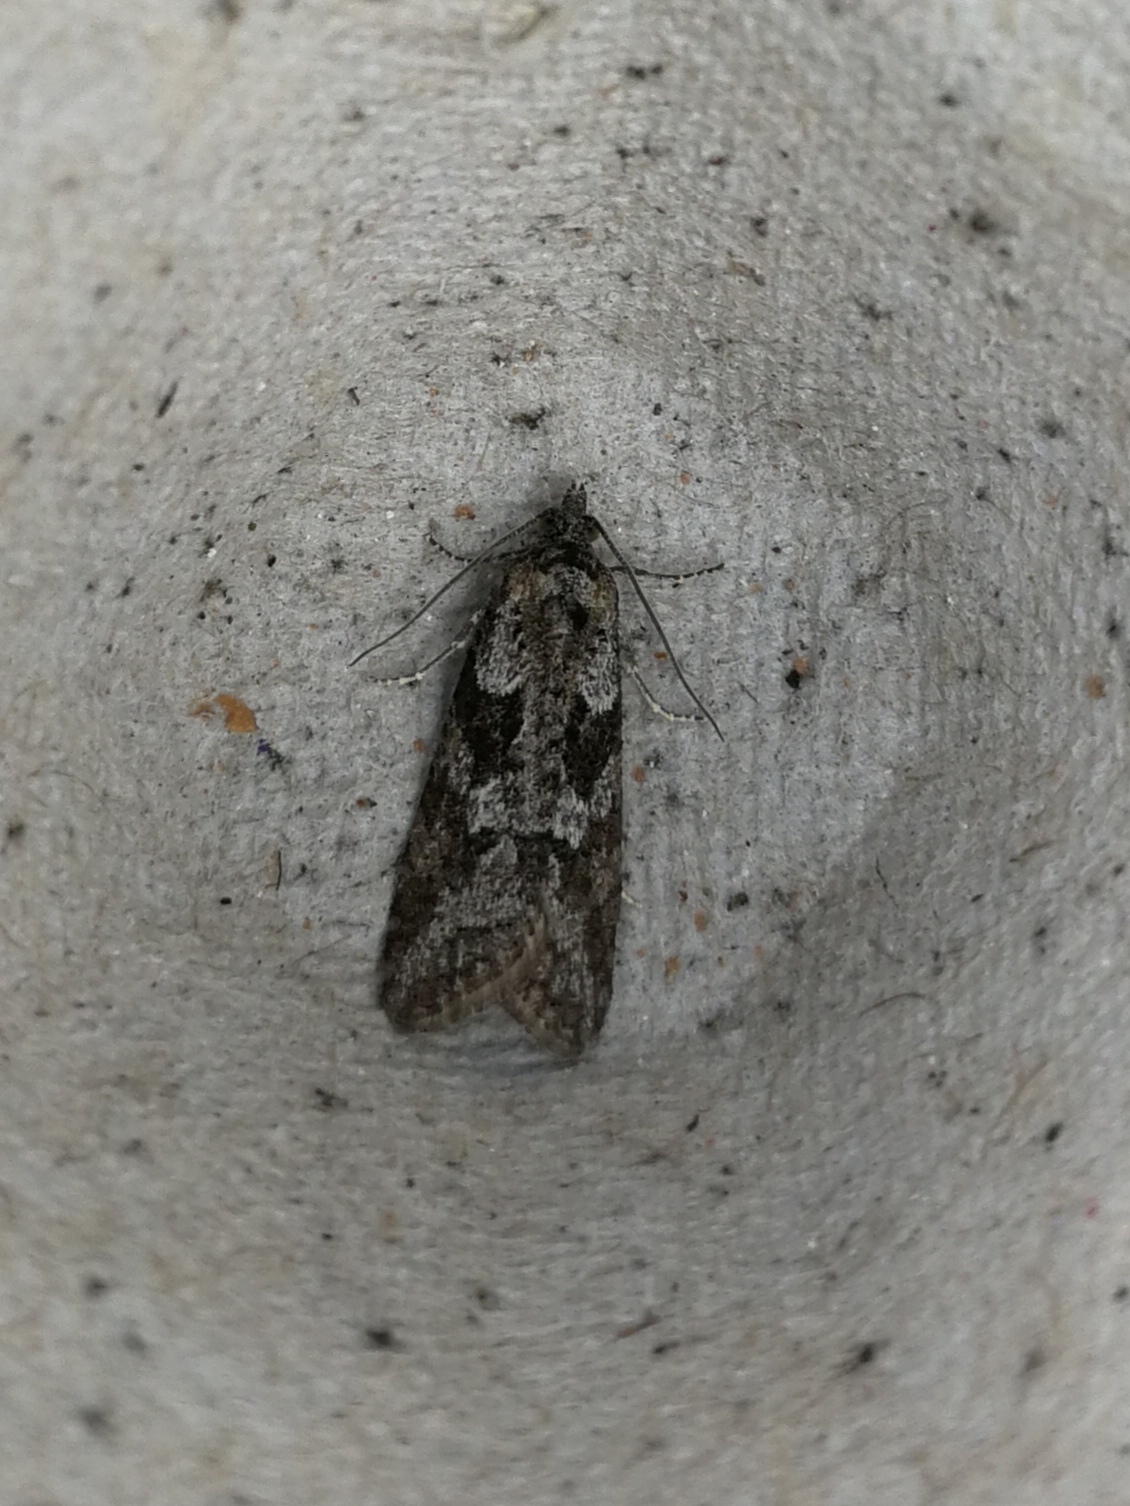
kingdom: Animalia
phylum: Arthropoda
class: Insecta
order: Lepidoptera
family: Tortricidae
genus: Cnephasia
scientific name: Cnephasia cupressivorana
